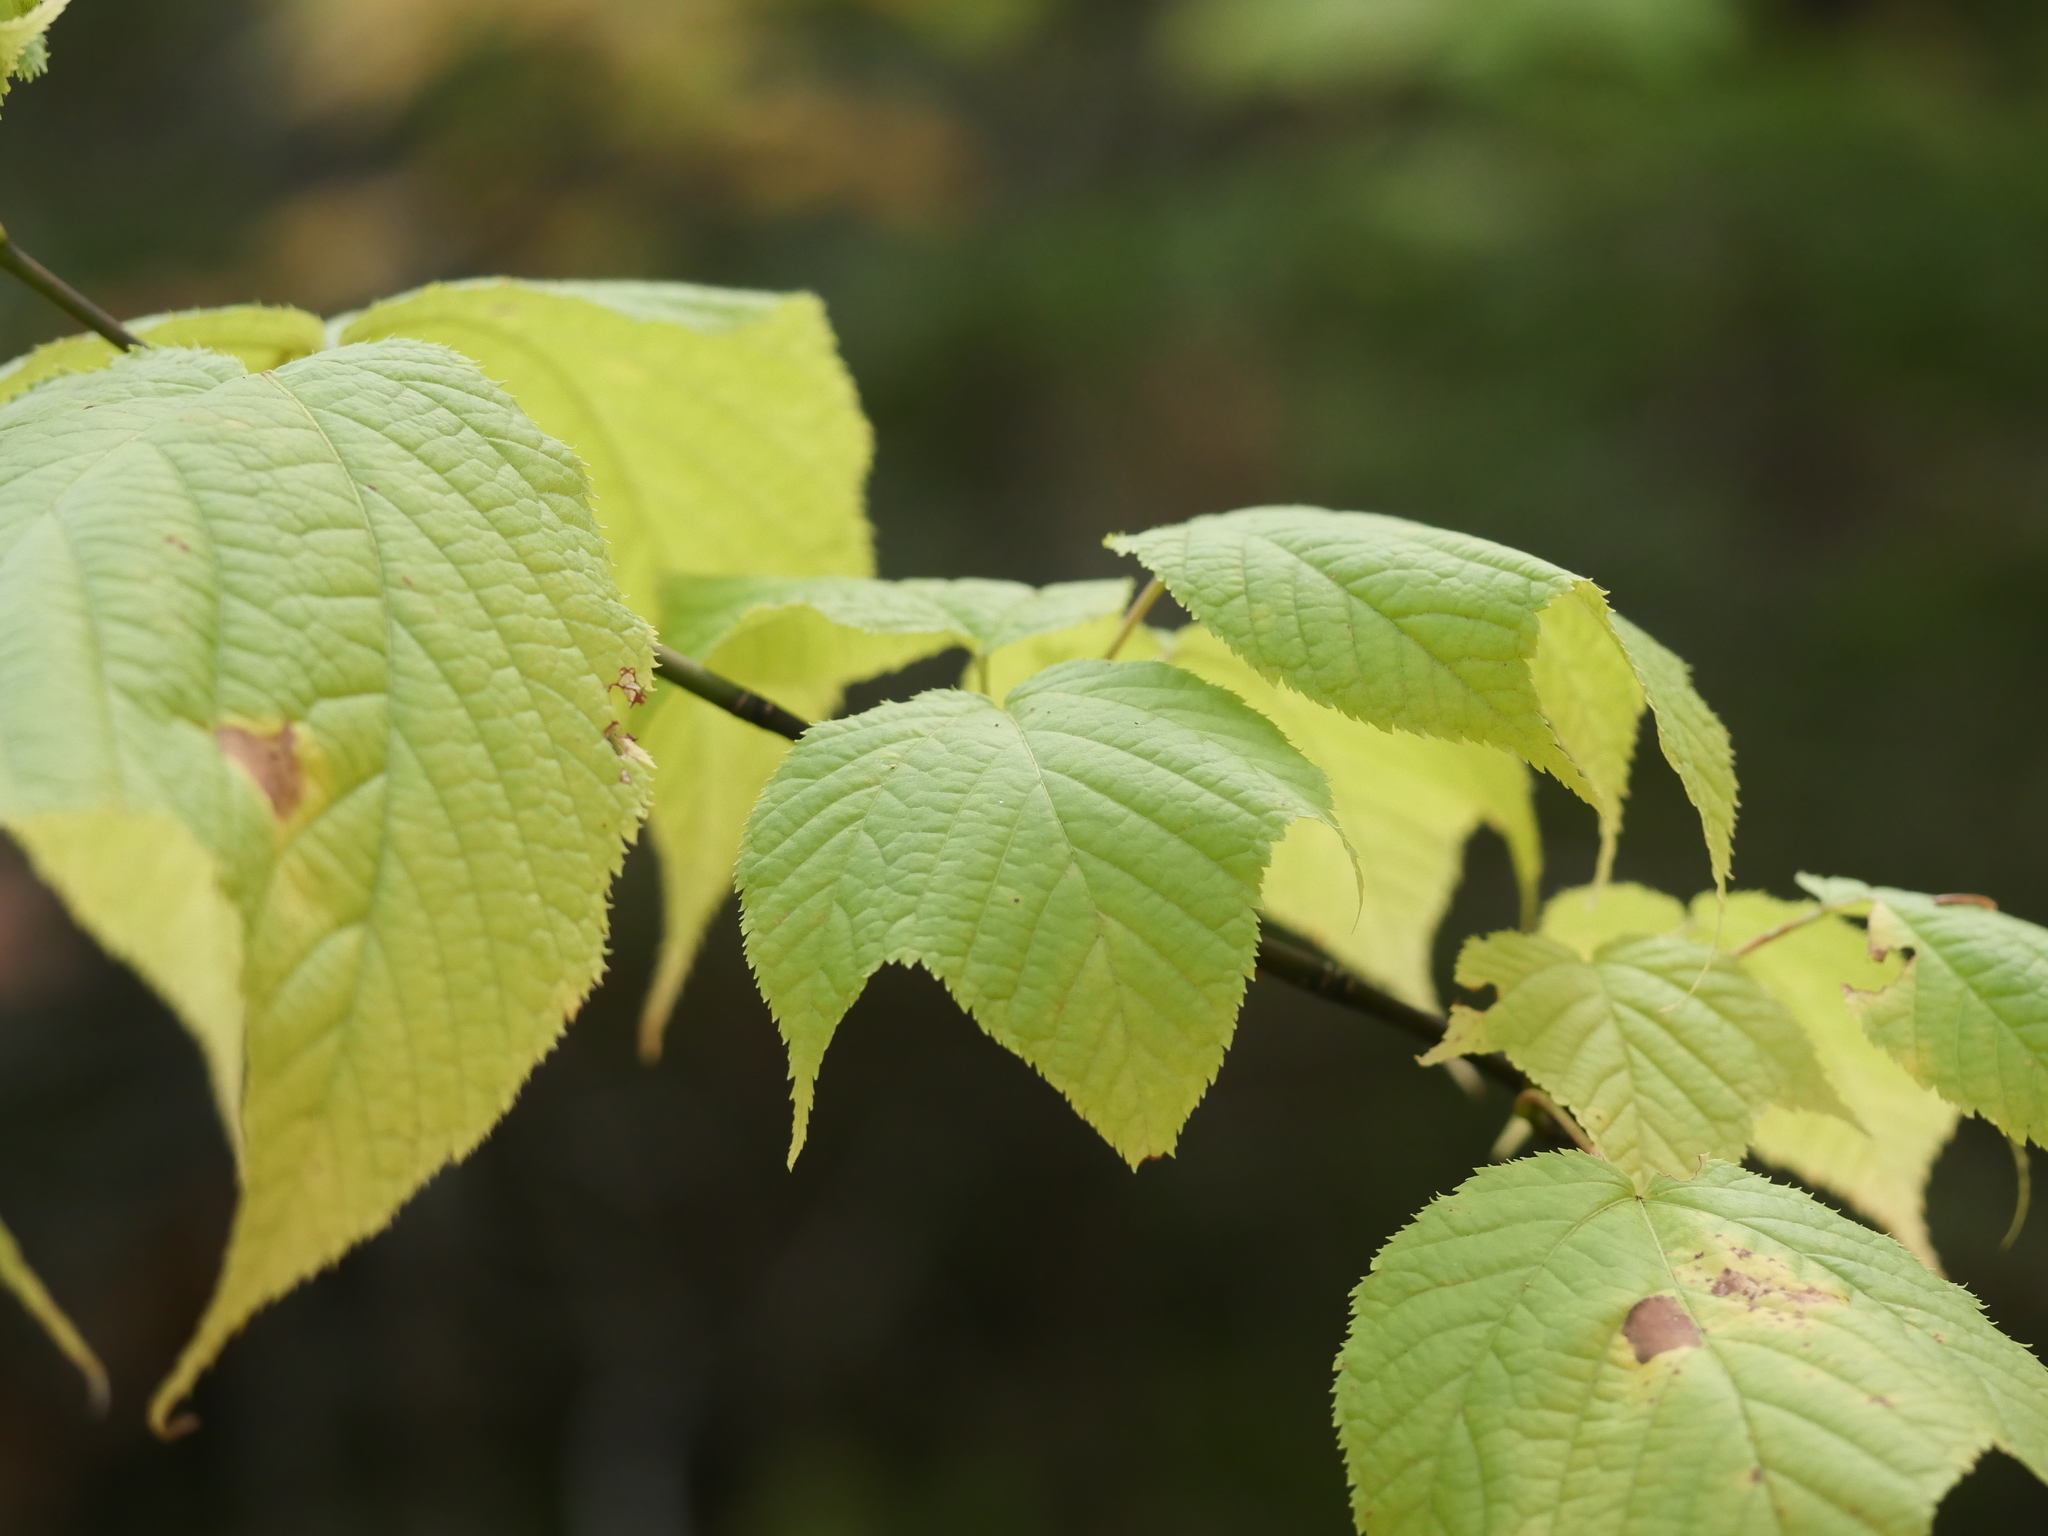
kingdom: Plantae
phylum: Tracheophyta
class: Magnoliopsida
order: Sapindales
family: Sapindaceae
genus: Acer
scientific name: Acer pensylvanicum
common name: Moosewood
